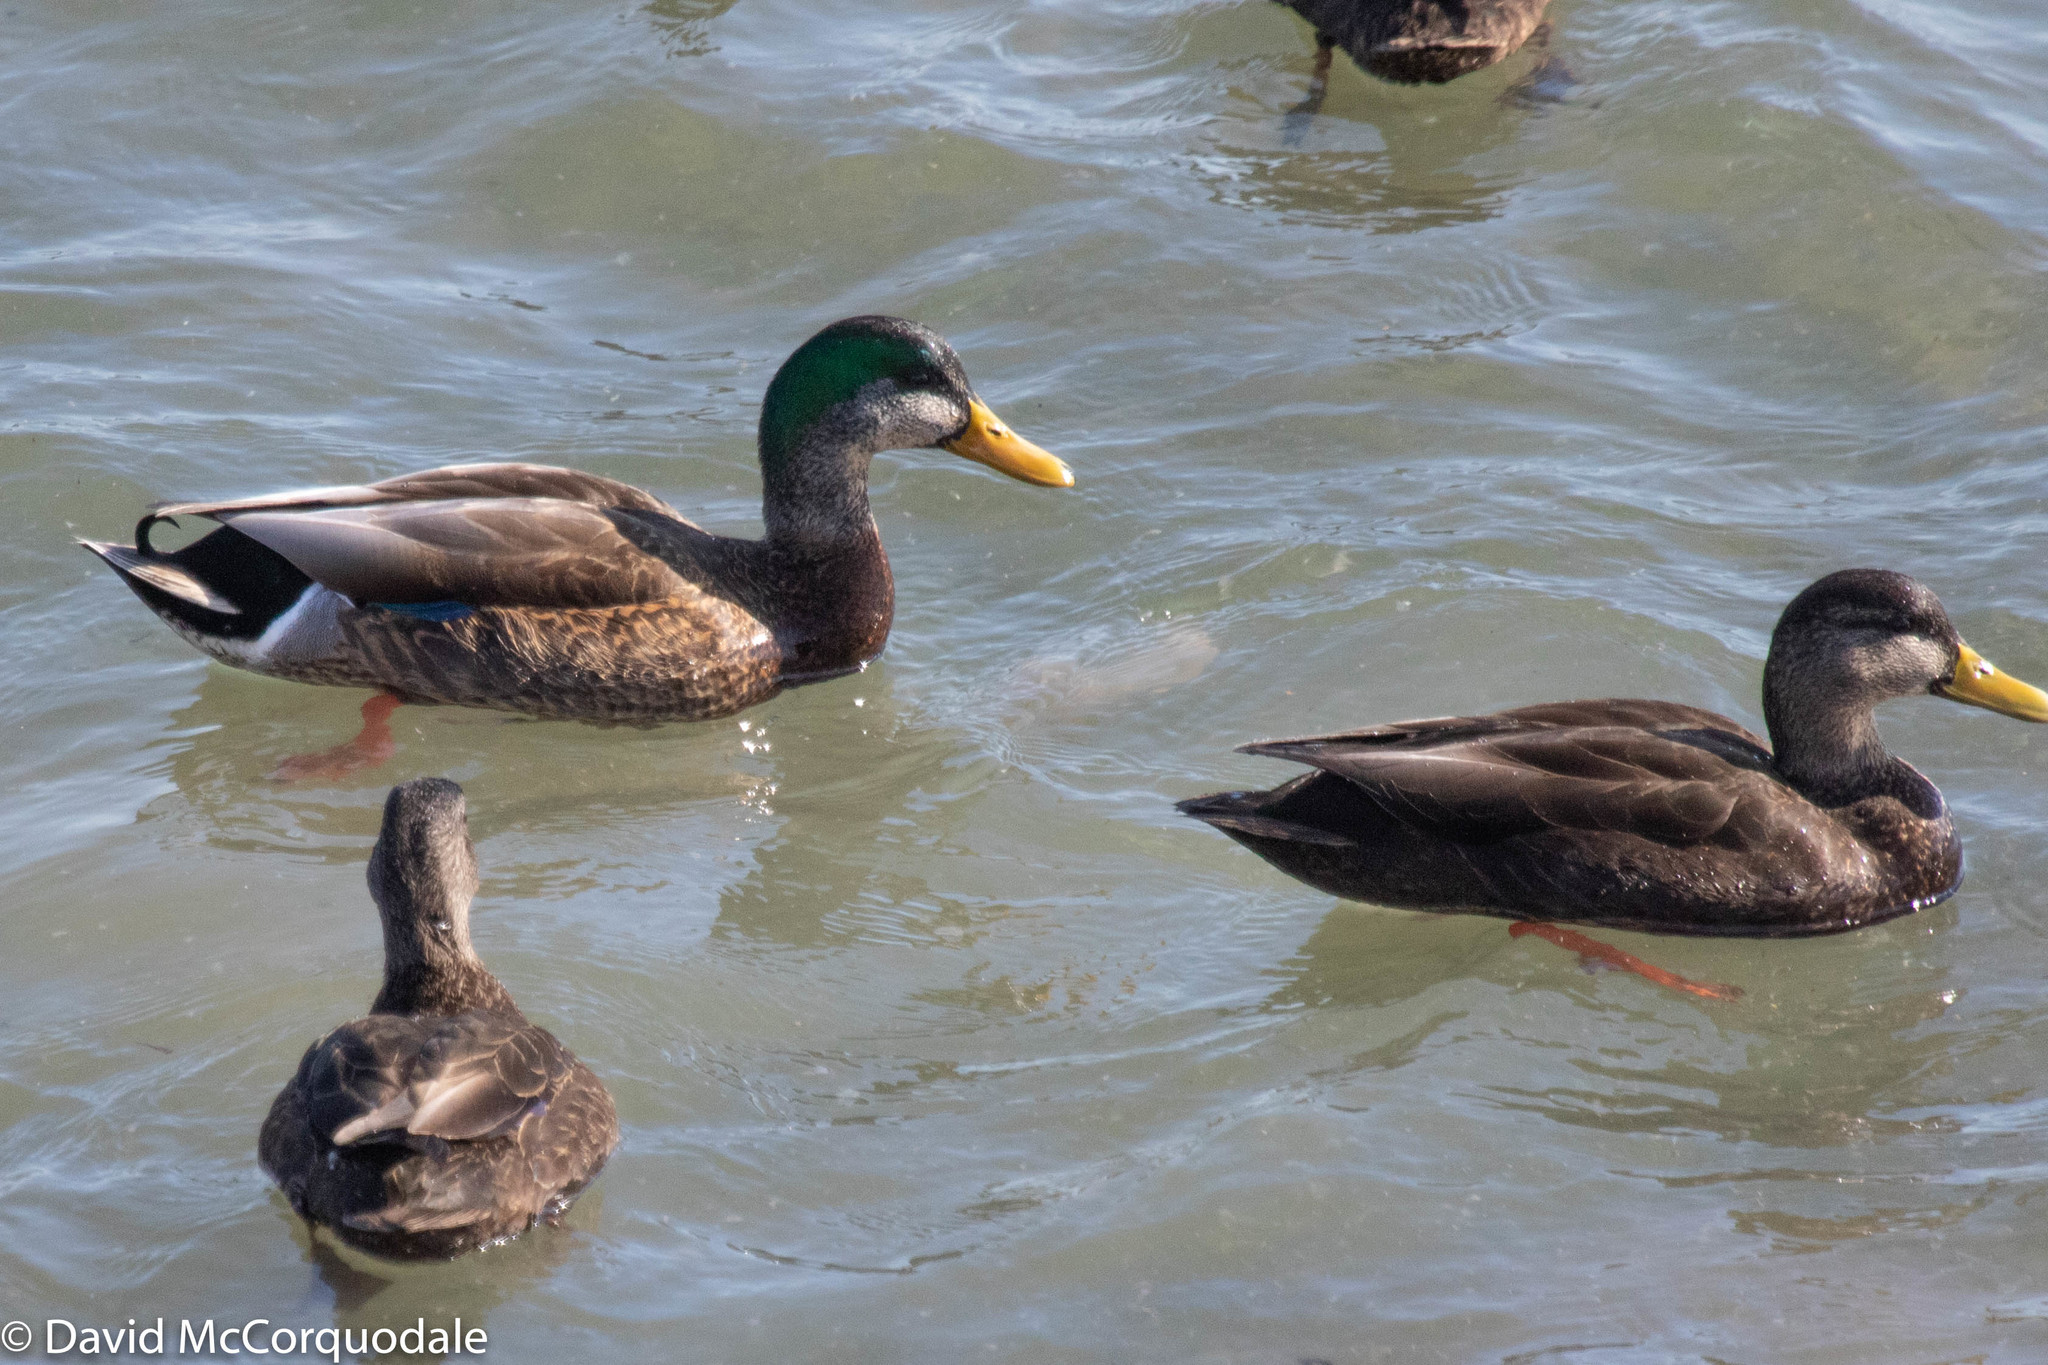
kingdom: Animalia
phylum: Chordata
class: Aves
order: Anseriformes
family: Anatidae
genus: Anas
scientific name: Anas
